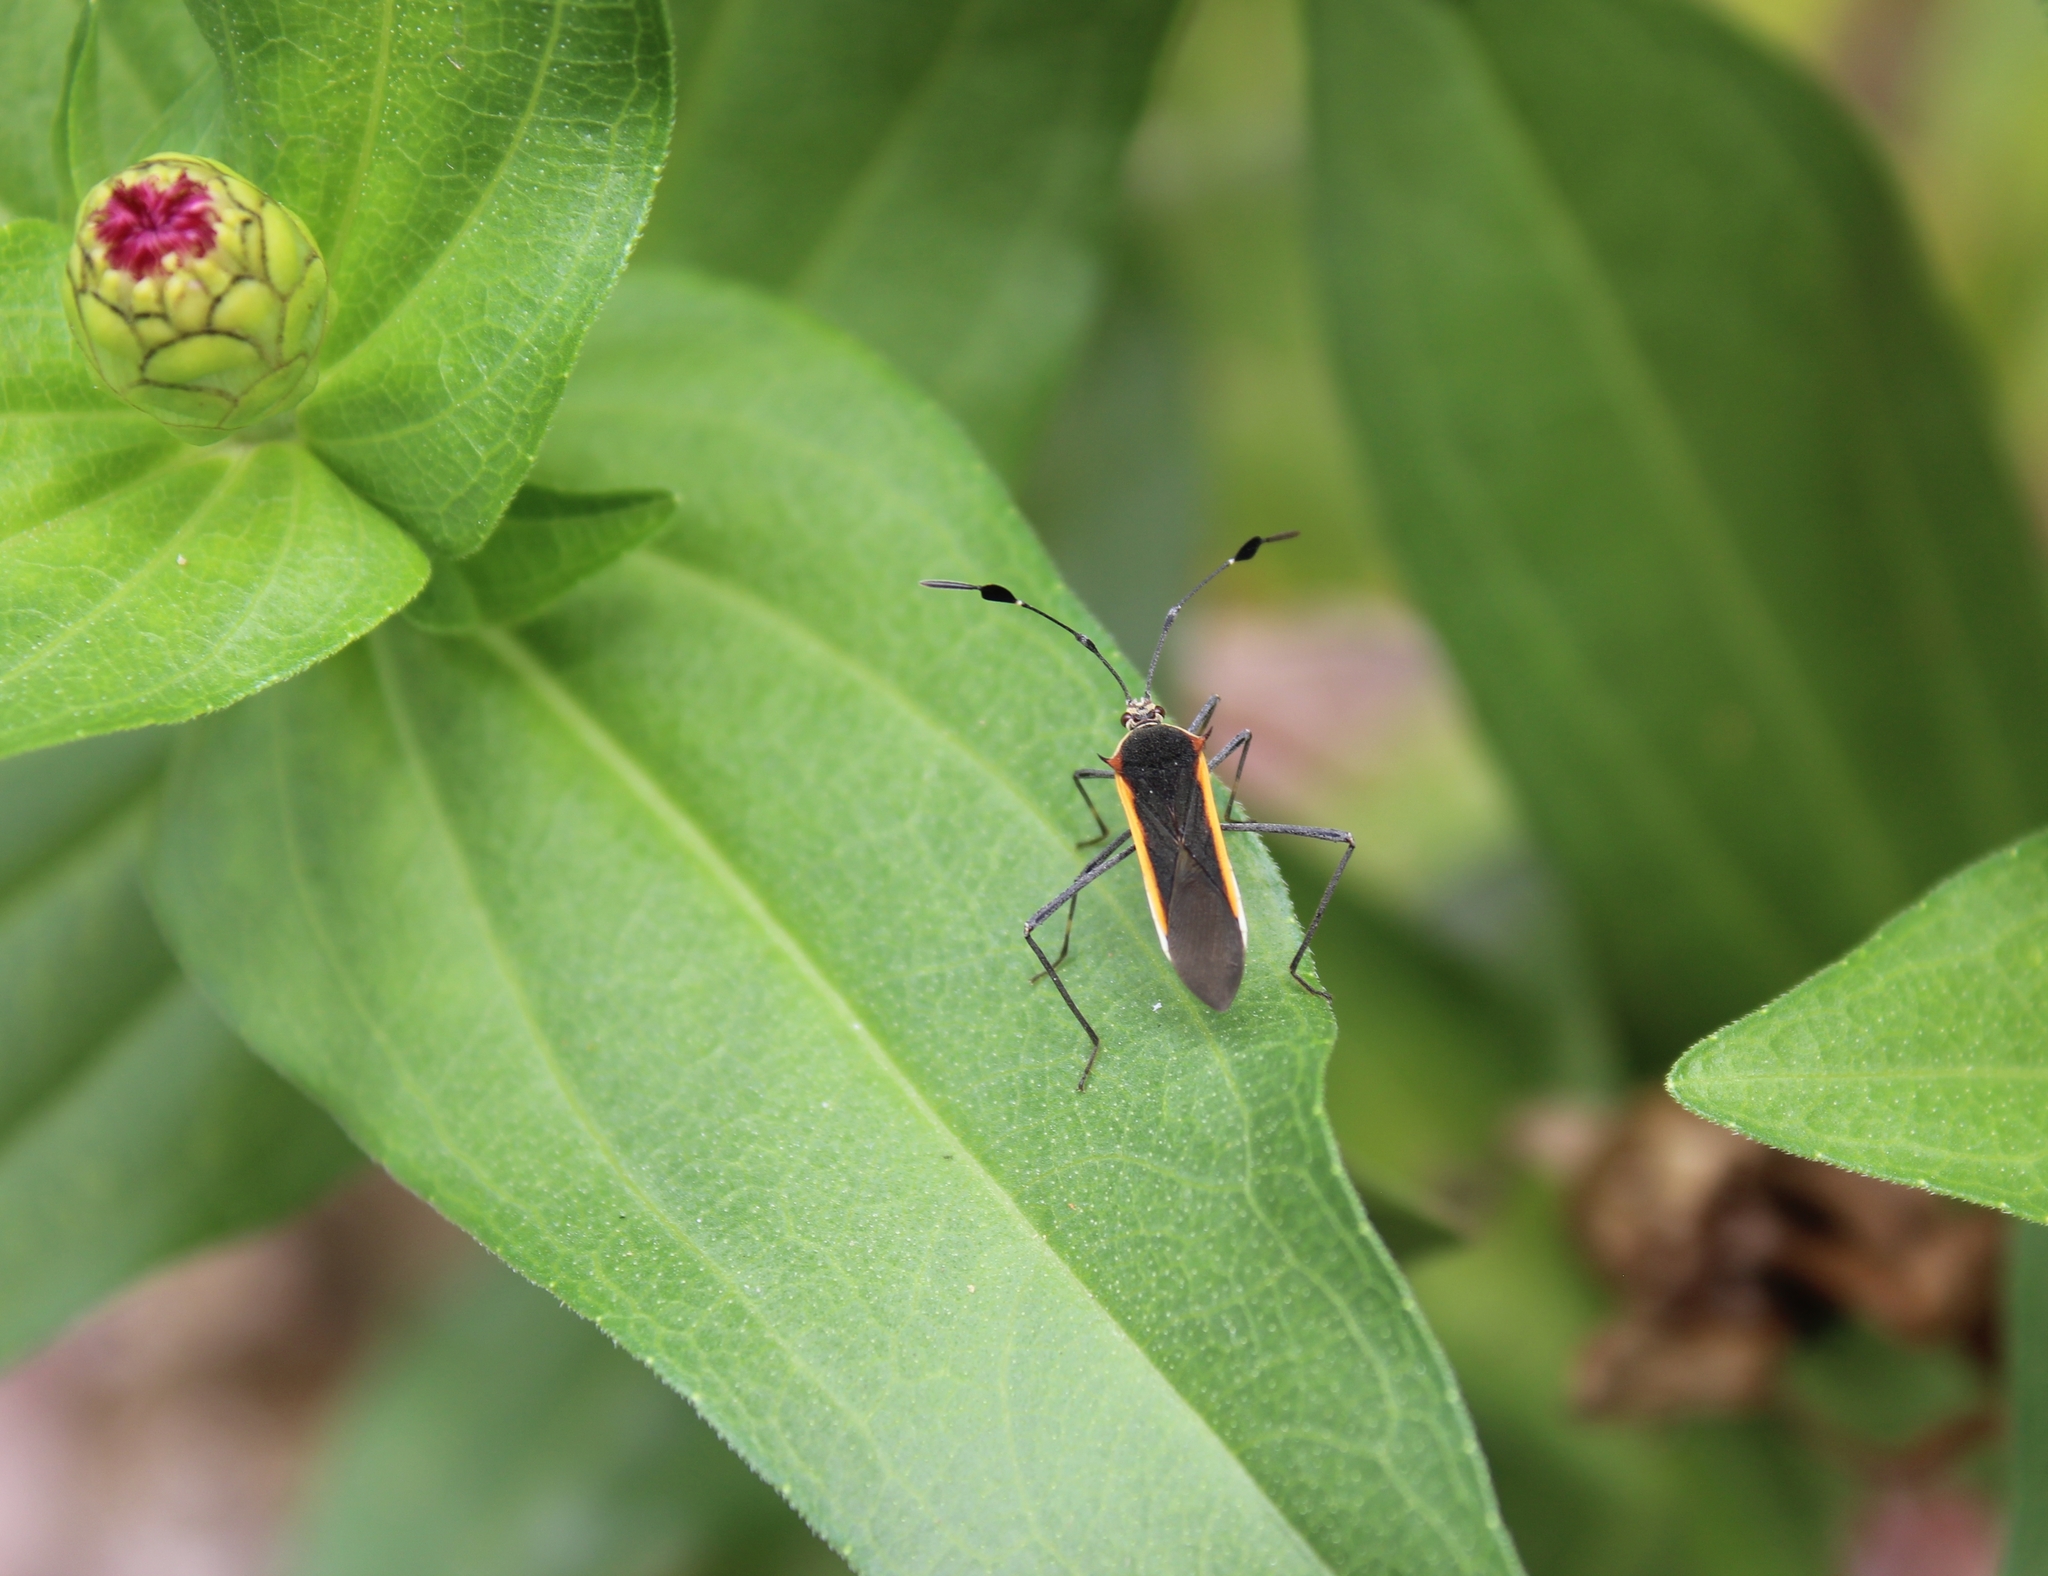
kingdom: Animalia
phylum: Arthropoda
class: Insecta
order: Hemiptera
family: Coreidae
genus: Plapigus
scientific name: Plapigus circumcinctus
